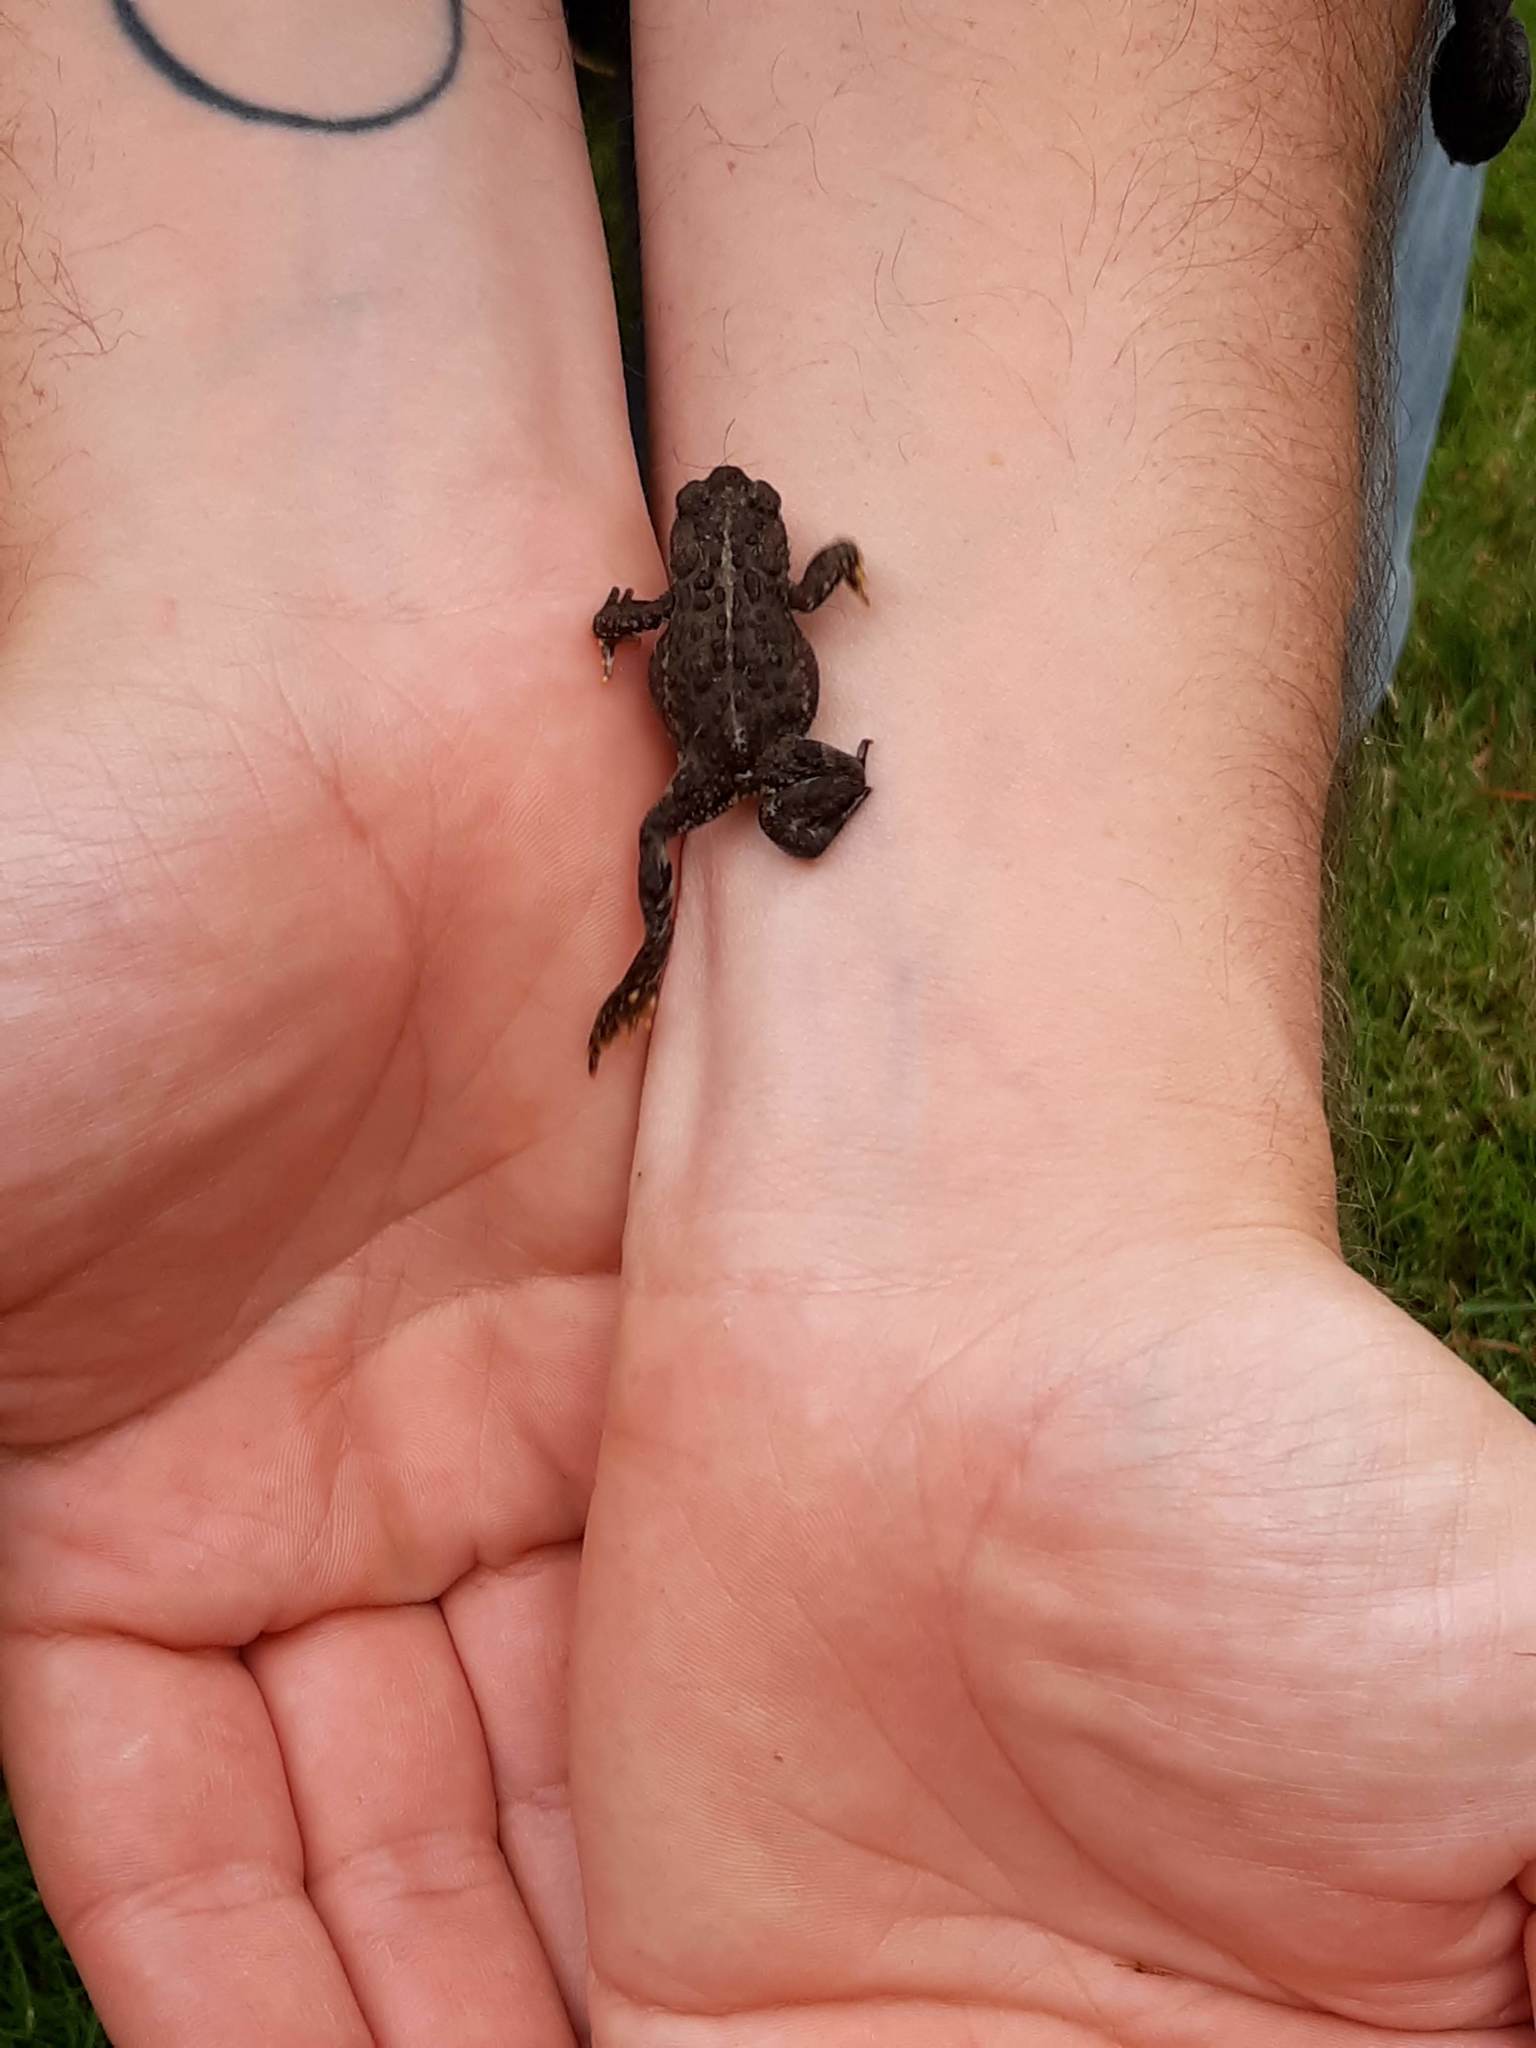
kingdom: Animalia
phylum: Chordata
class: Amphibia
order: Anura
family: Bufonidae
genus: Anaxyrus
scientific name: Anaxyrus boreas
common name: Western toad
